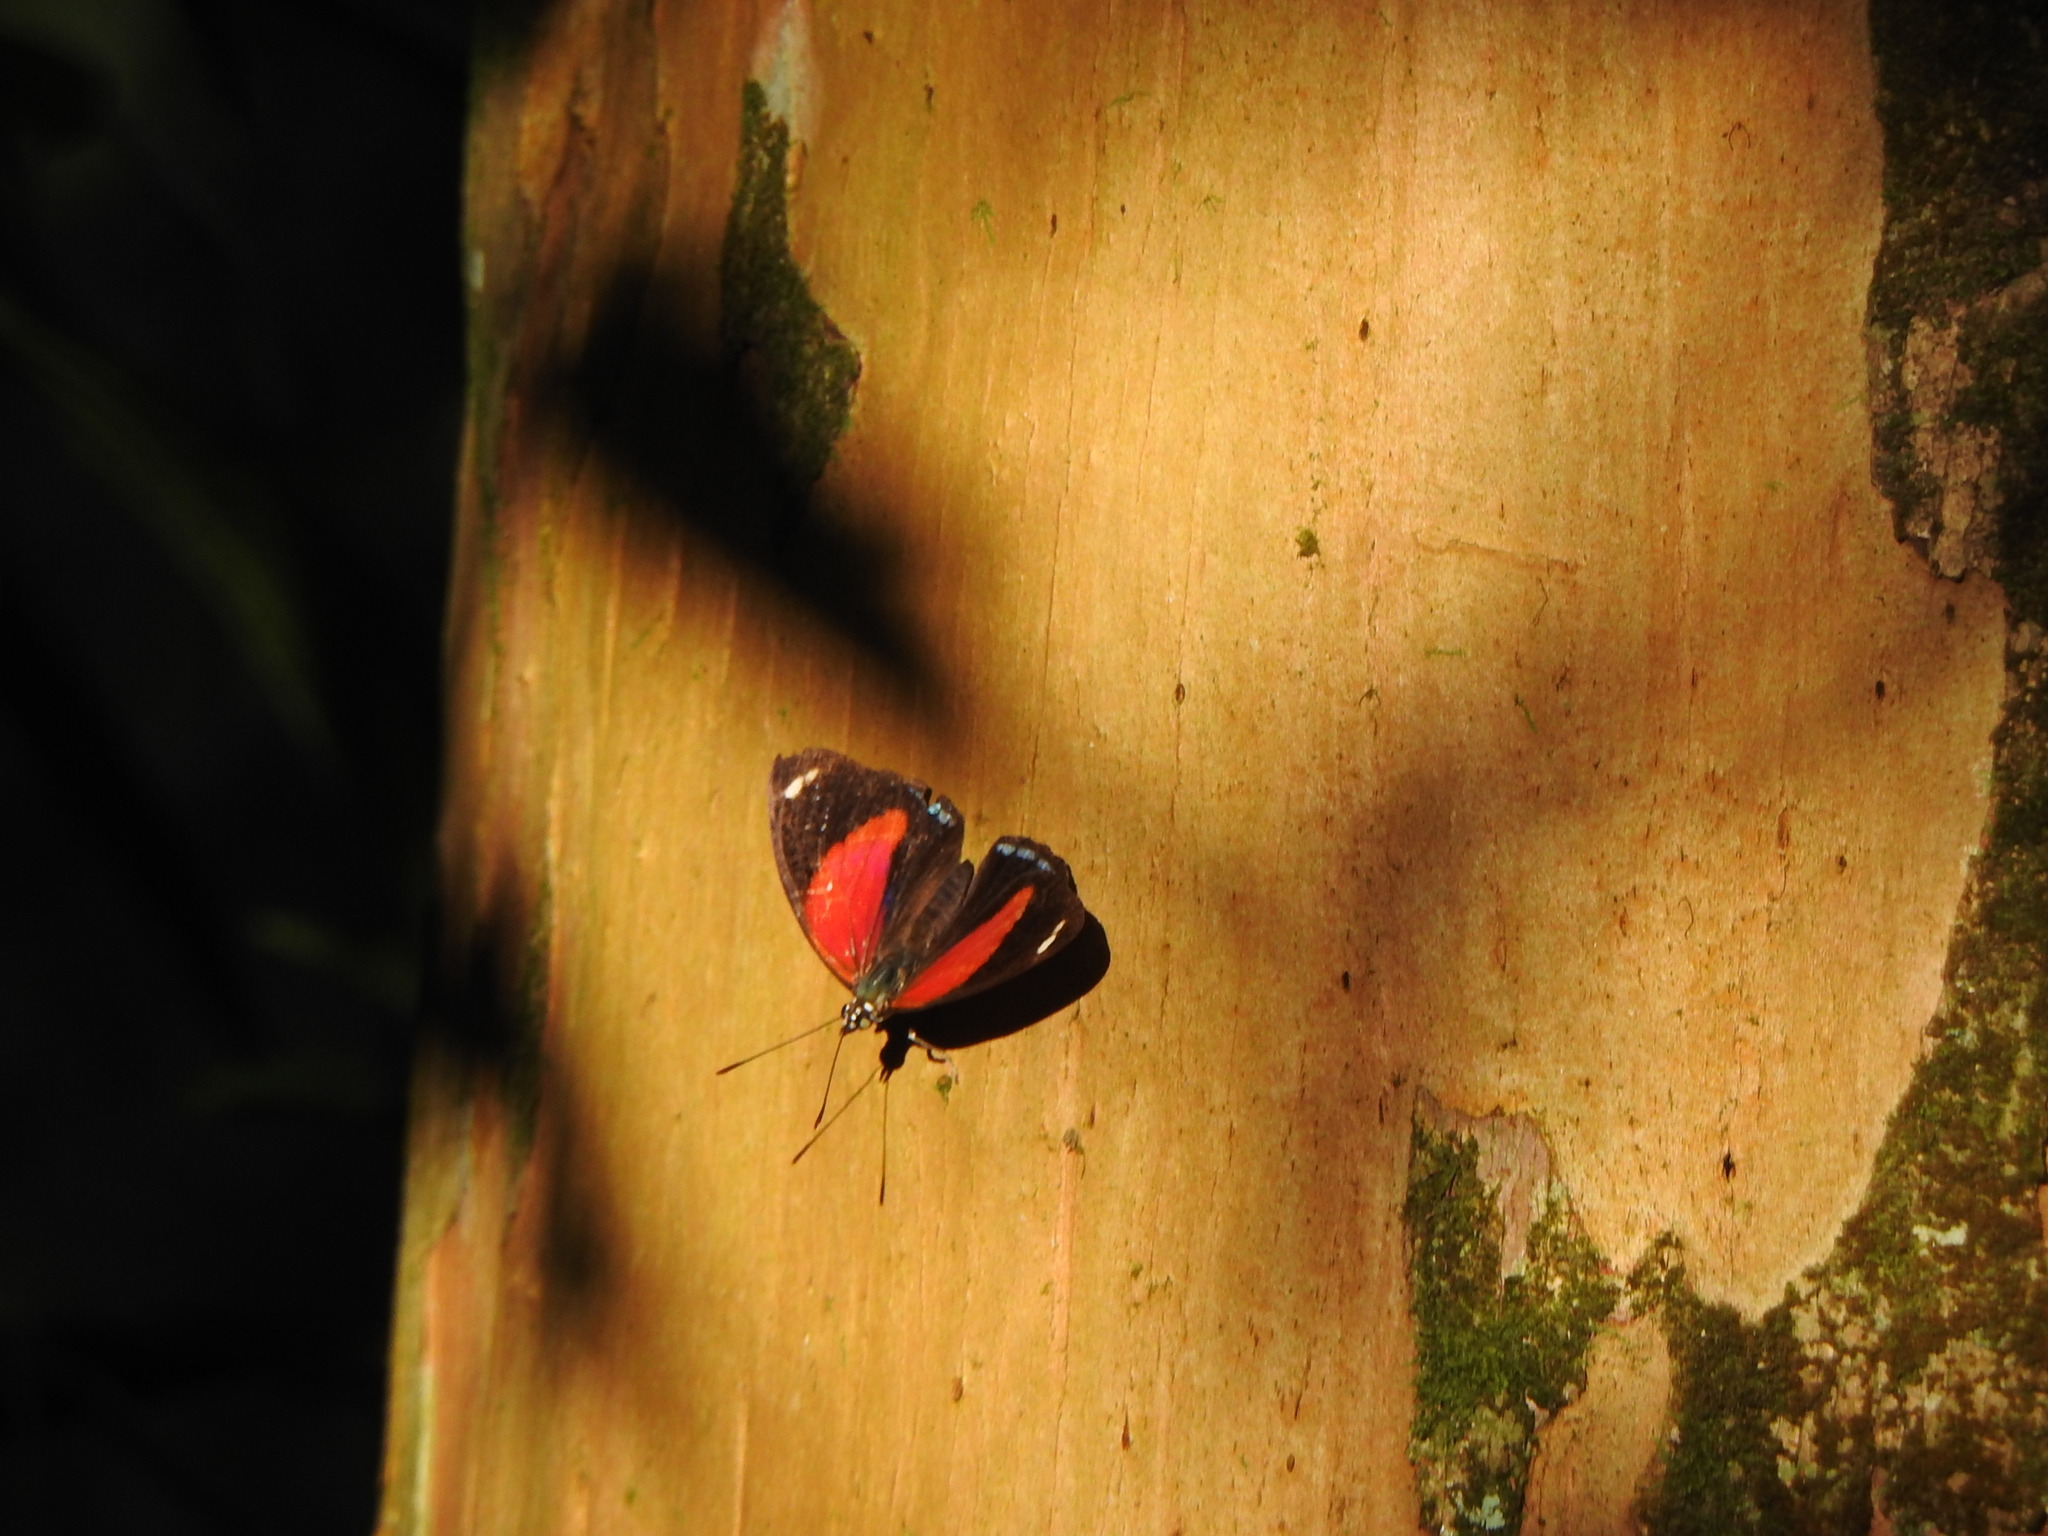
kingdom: Animalia
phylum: Arthropoda
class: Insecta
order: Lepidoptera
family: Nymphalidae
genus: Catagramma
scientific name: Catagramma pygas
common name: Godart's numberwing
